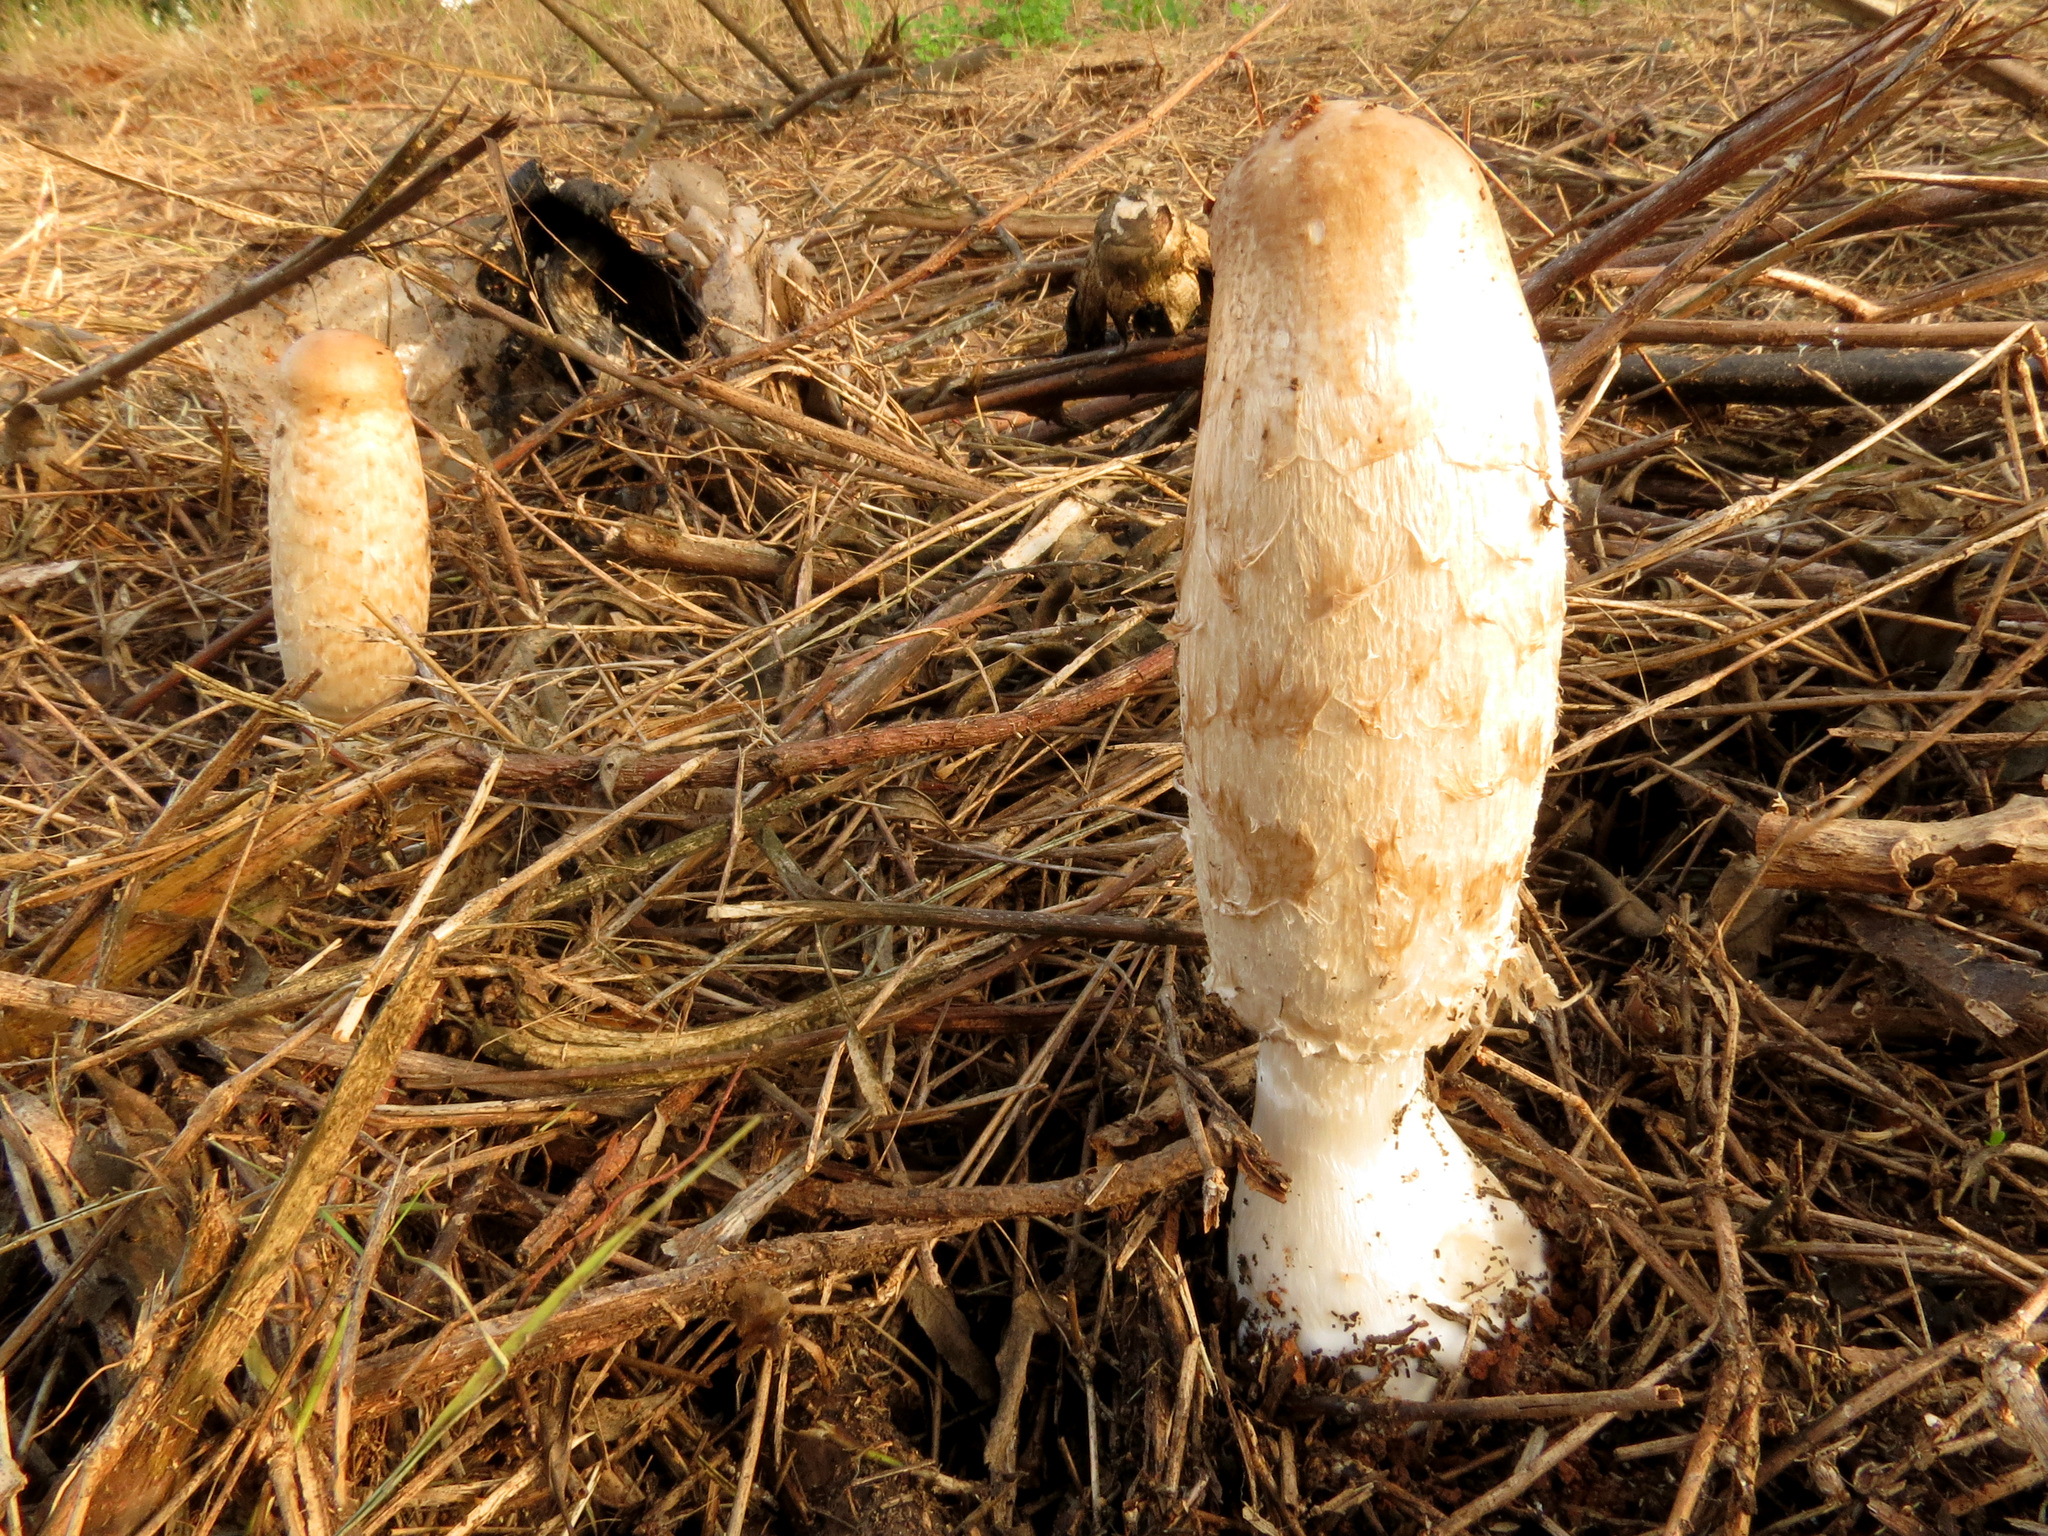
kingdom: Fungi
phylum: Basidiomycota
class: Agaricomycetes
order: Agaricales
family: Agaricaceae
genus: Coprinus
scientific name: Coprinus comatus
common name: Lawyer's wig
